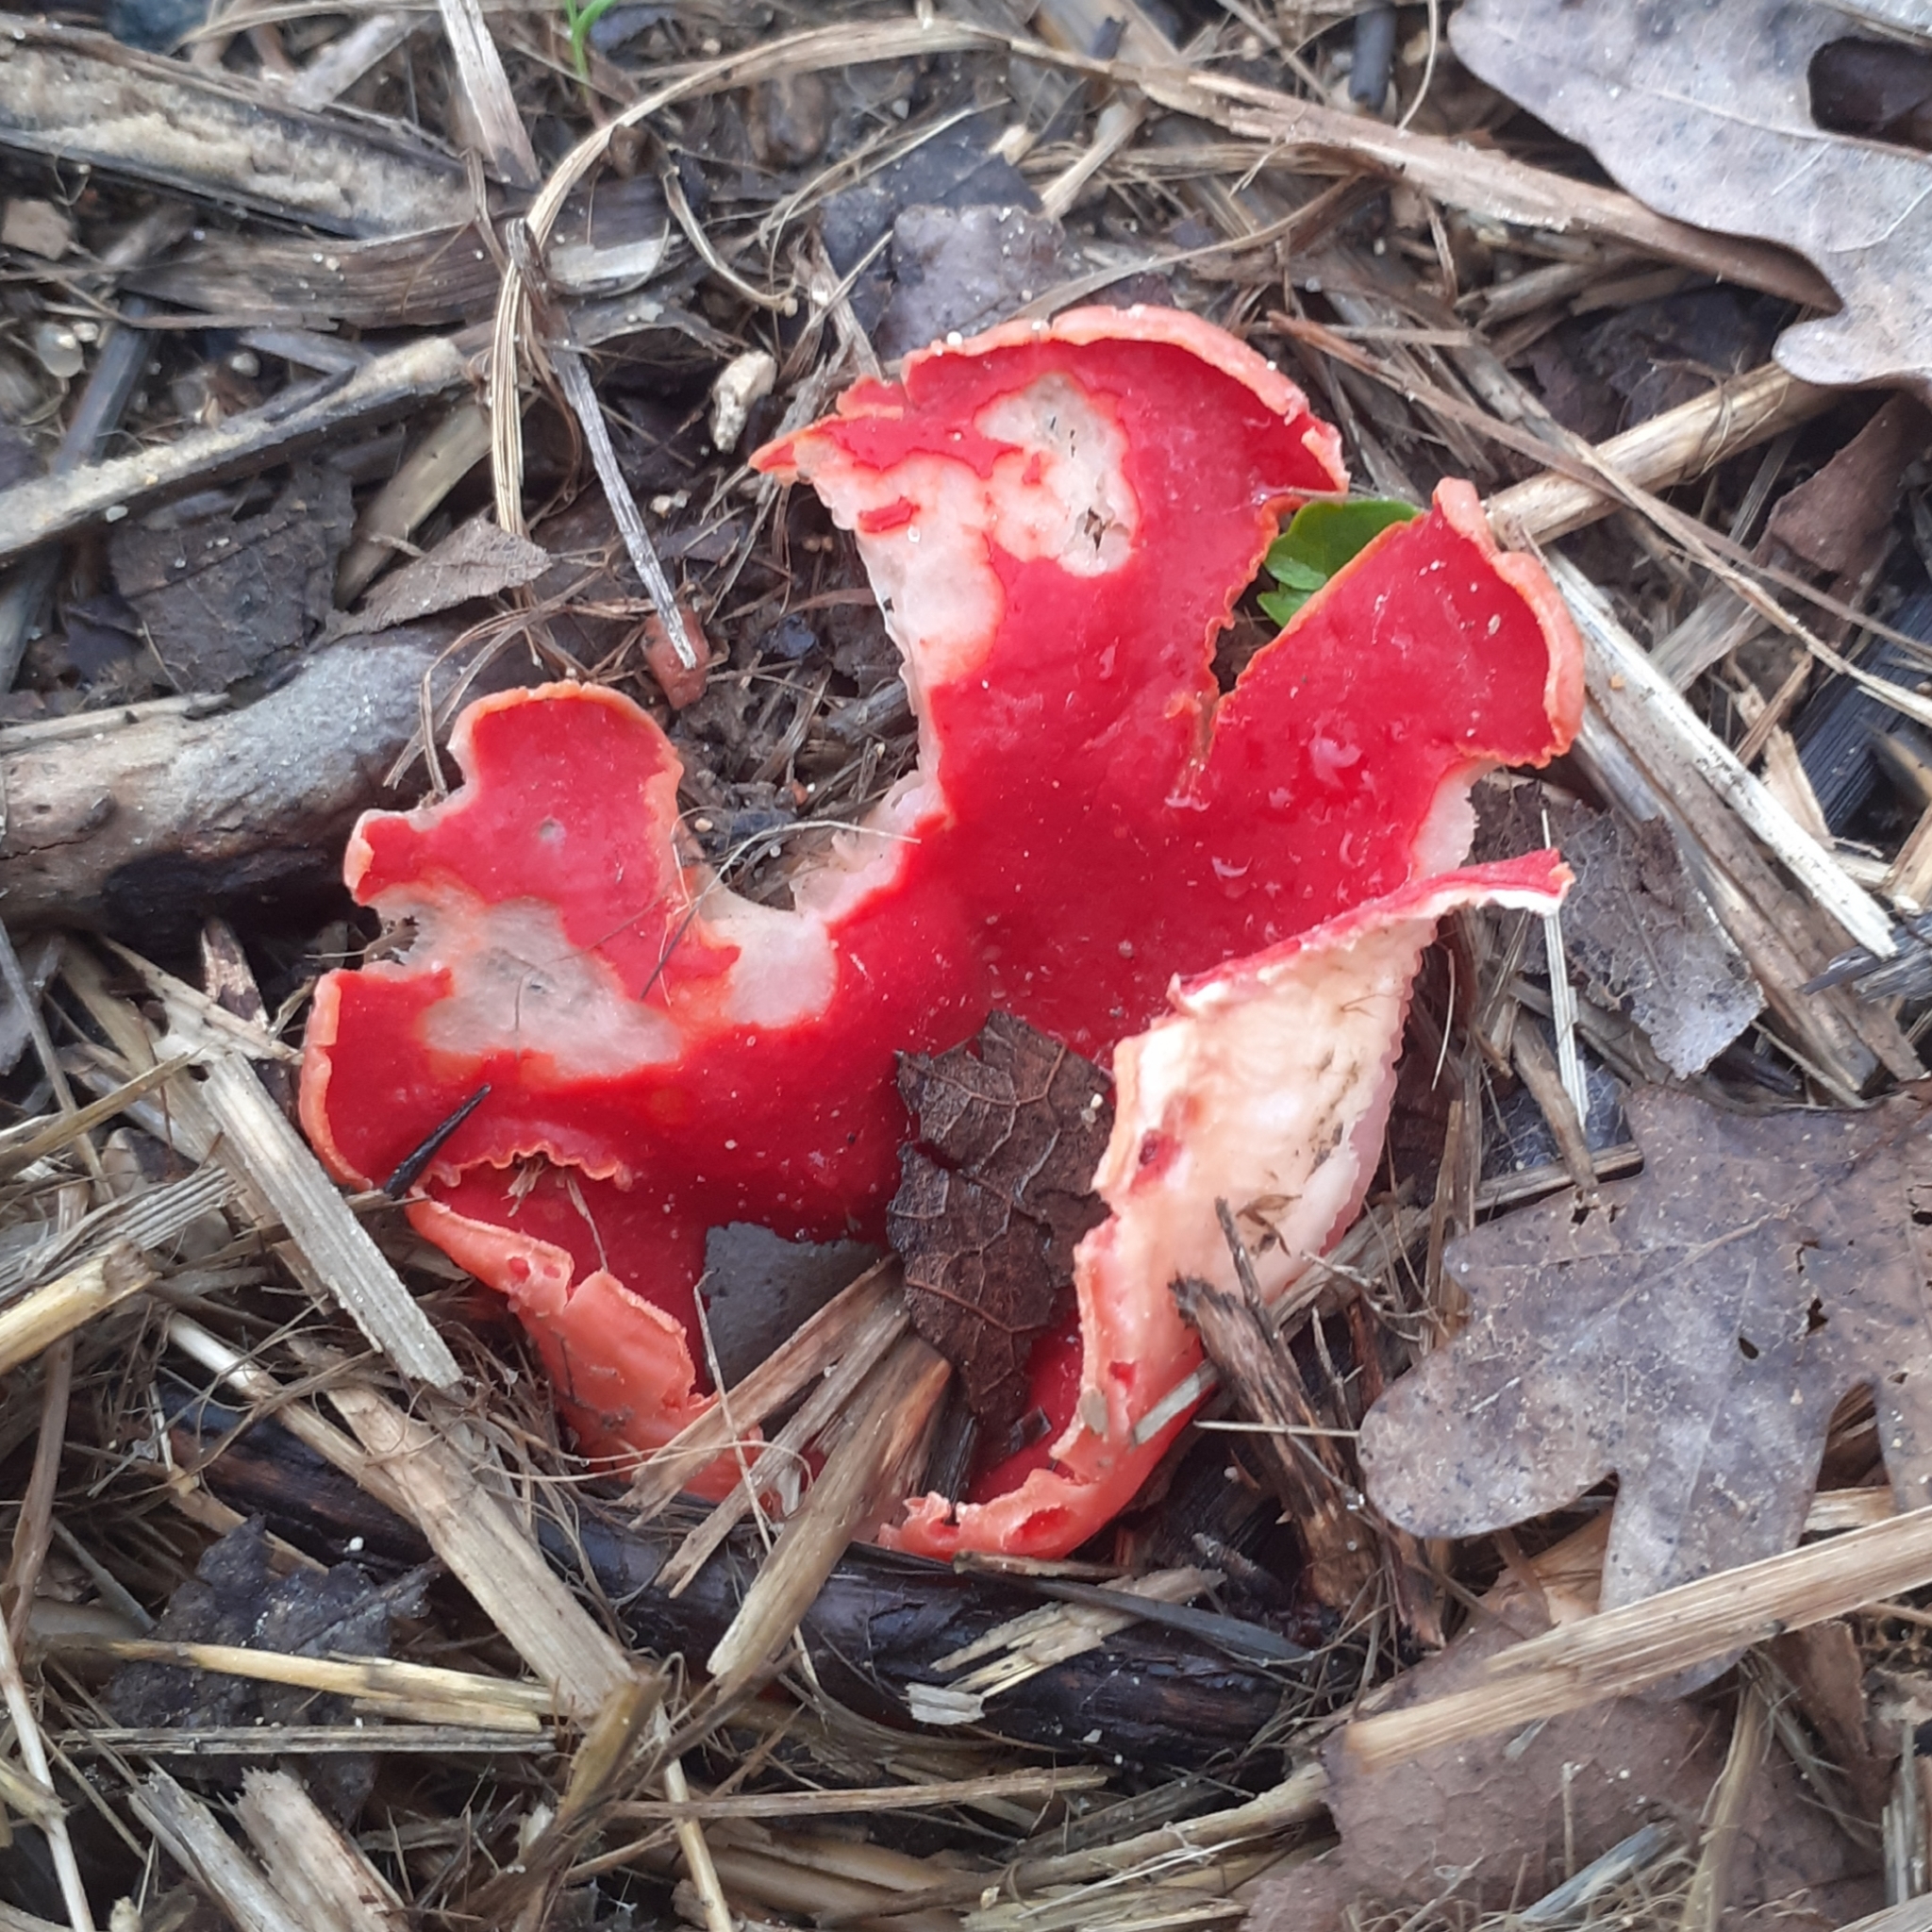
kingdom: Fungi
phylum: Ascomycota
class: Pezizomycetes
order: Pezizales
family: Sarcoscyphaceae
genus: Sarcoscypha
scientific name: Sarcoscypha
